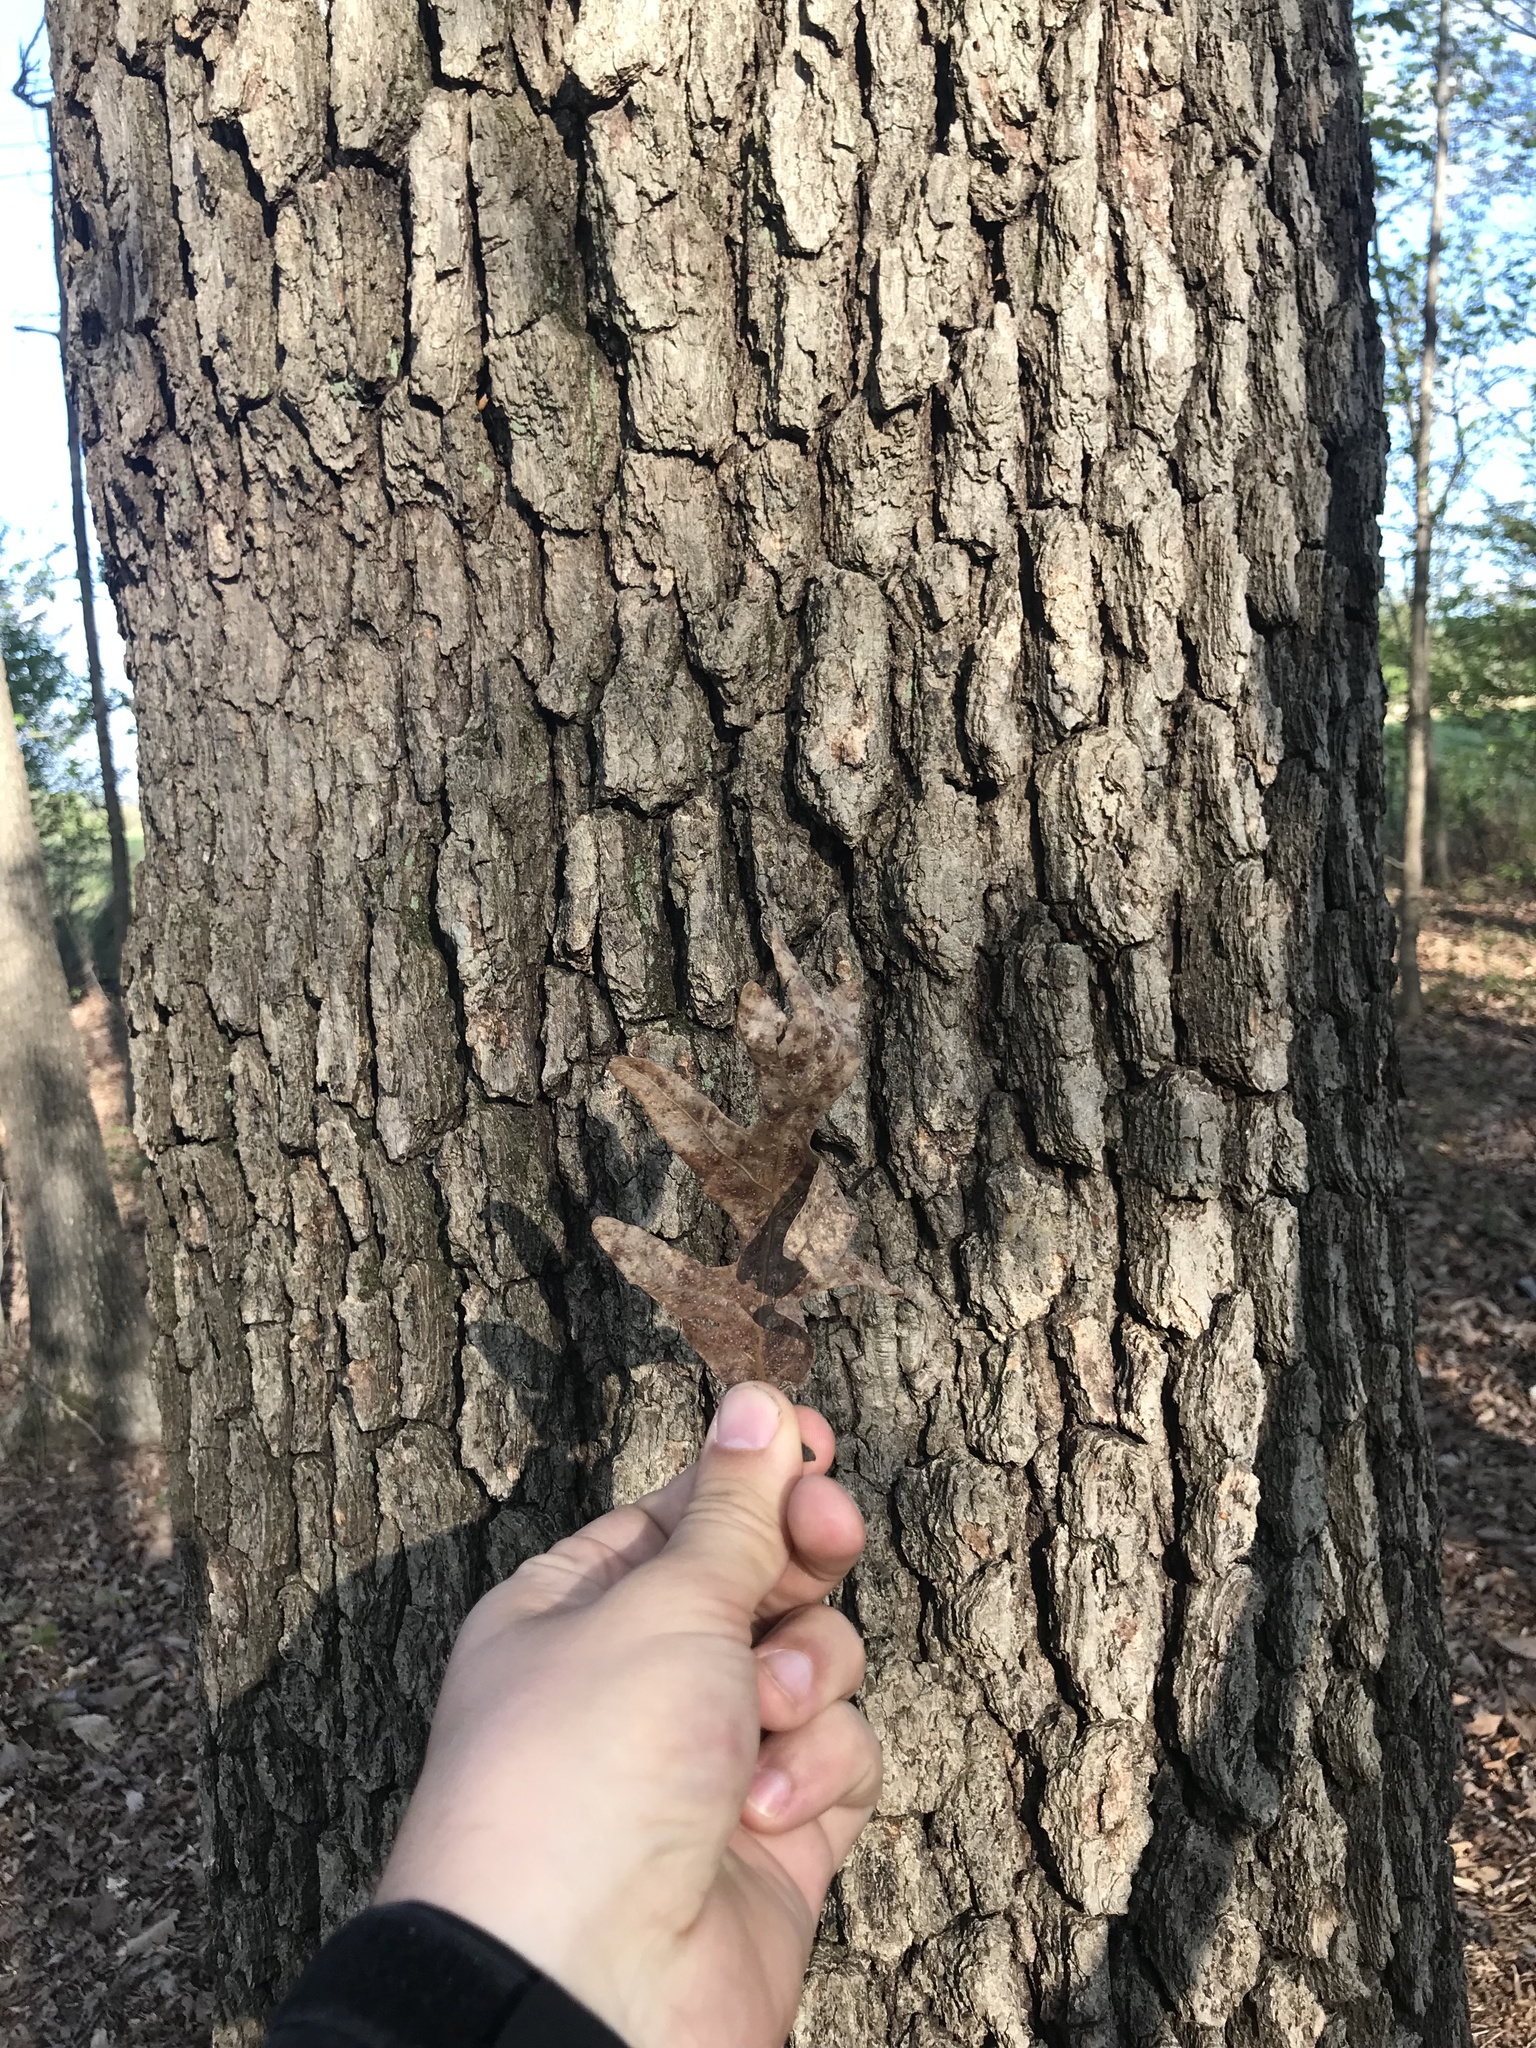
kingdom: Plantae
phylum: Tracheophyta
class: Magnoliopsida
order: Fagales
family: Fagaceae
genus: Quercus
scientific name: Quercus alba
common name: White oak
